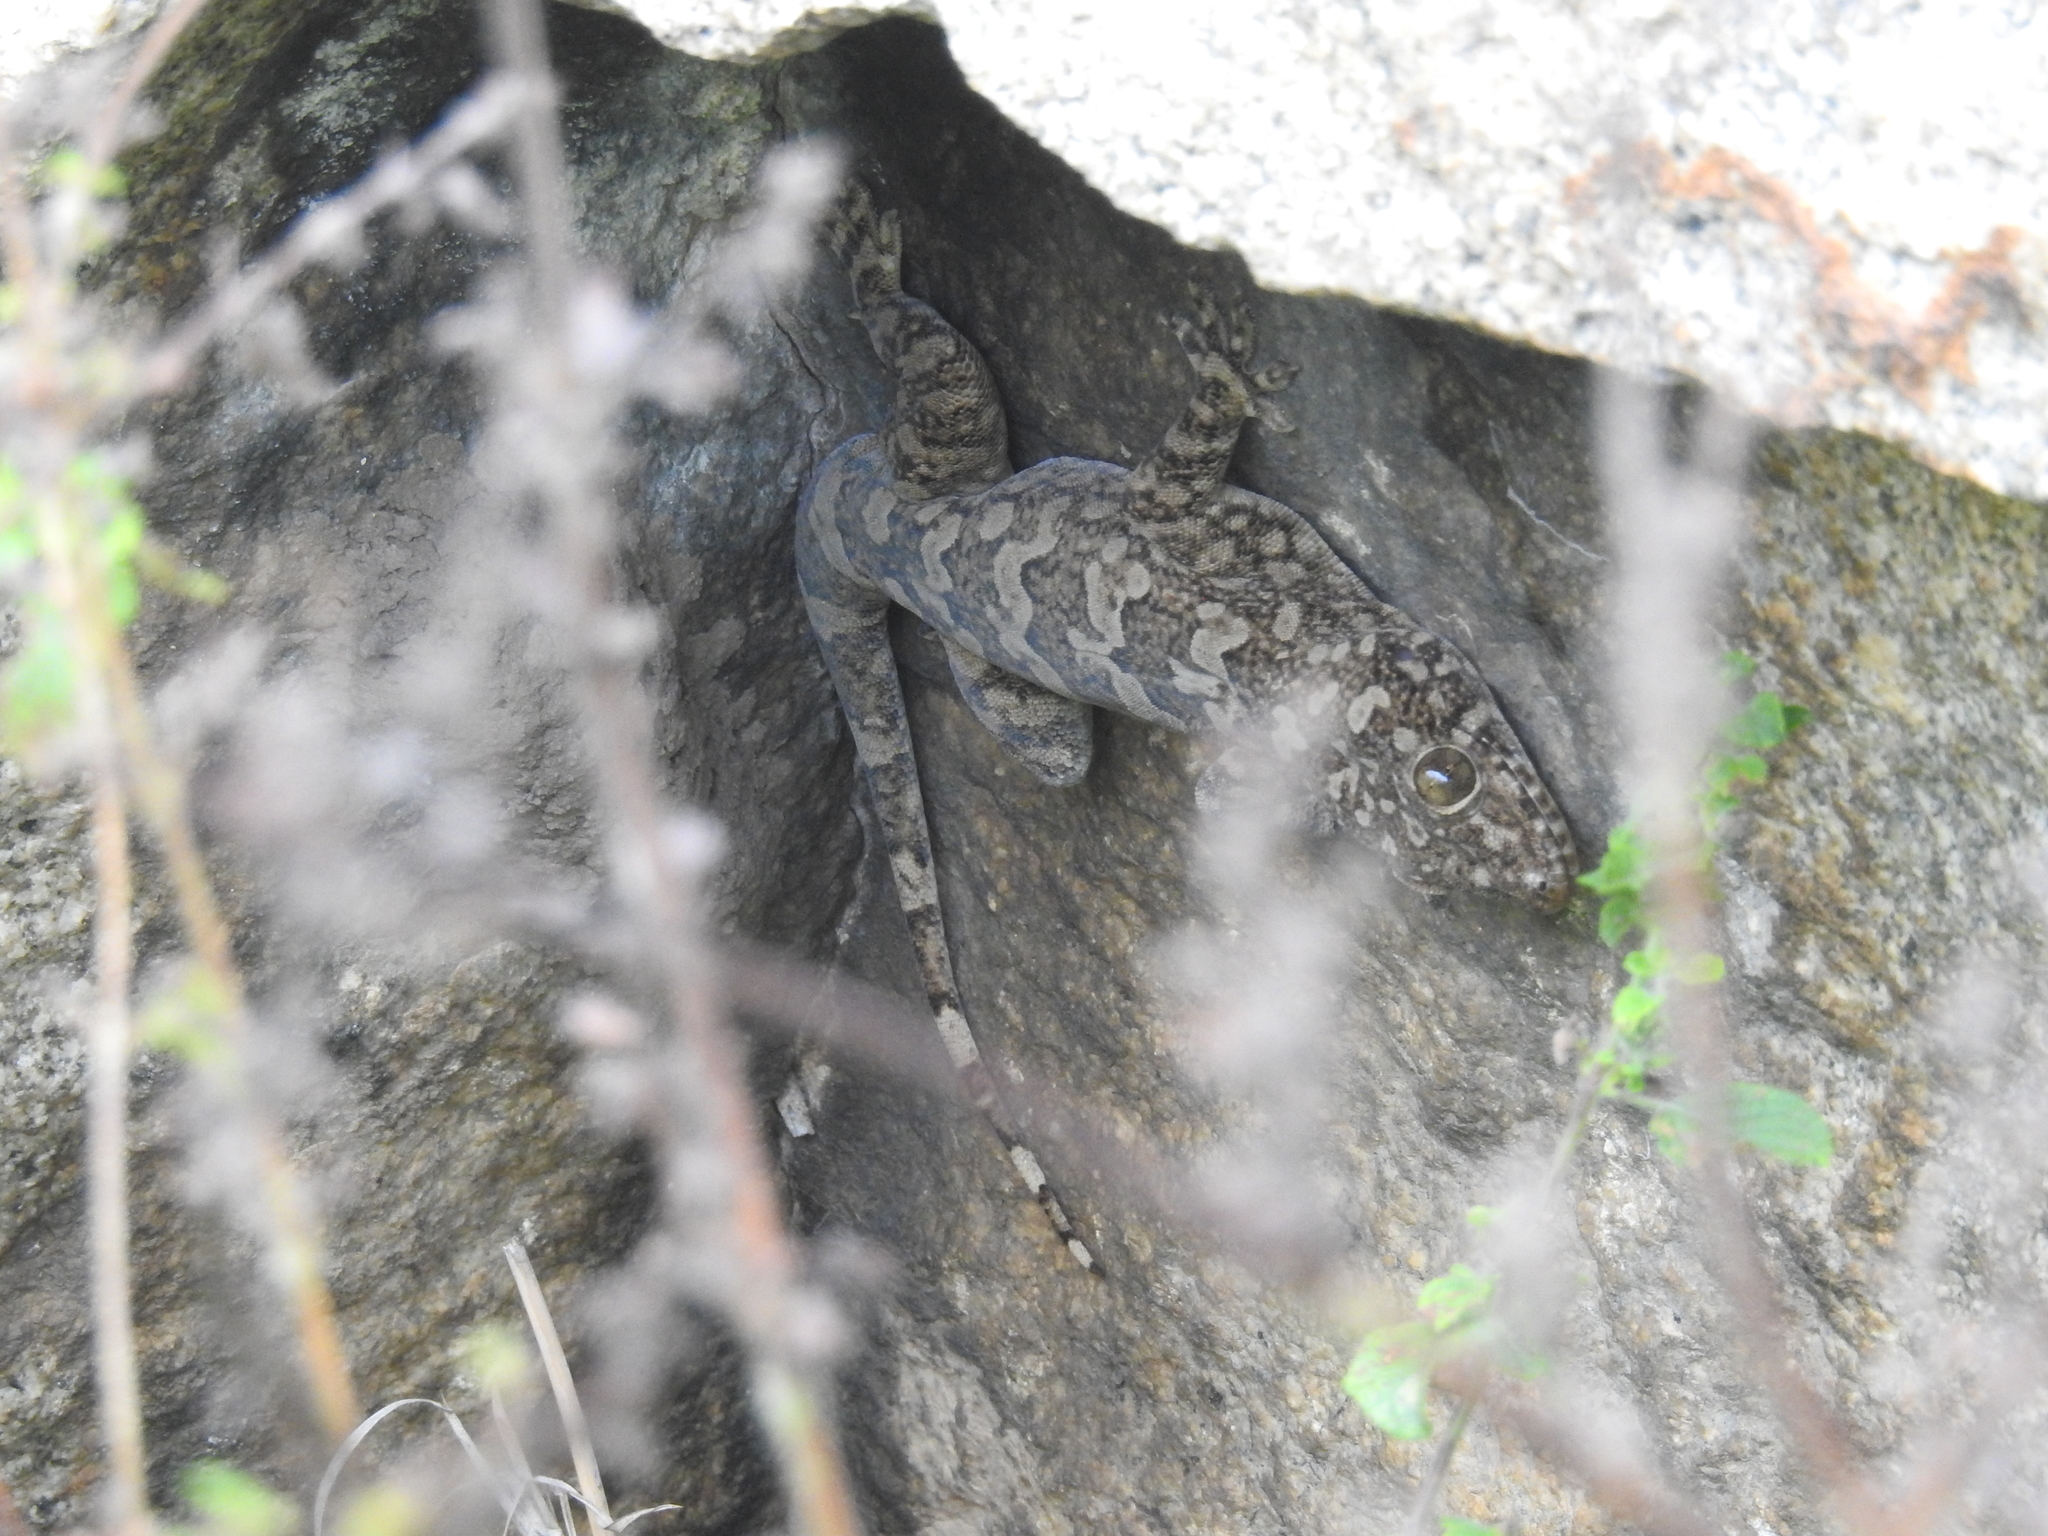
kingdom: Animalia
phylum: Chordata
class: Squamata
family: Gekkonidae
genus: Hemidactylus
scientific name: Hemidactylus giganteus
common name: Giant gecko
